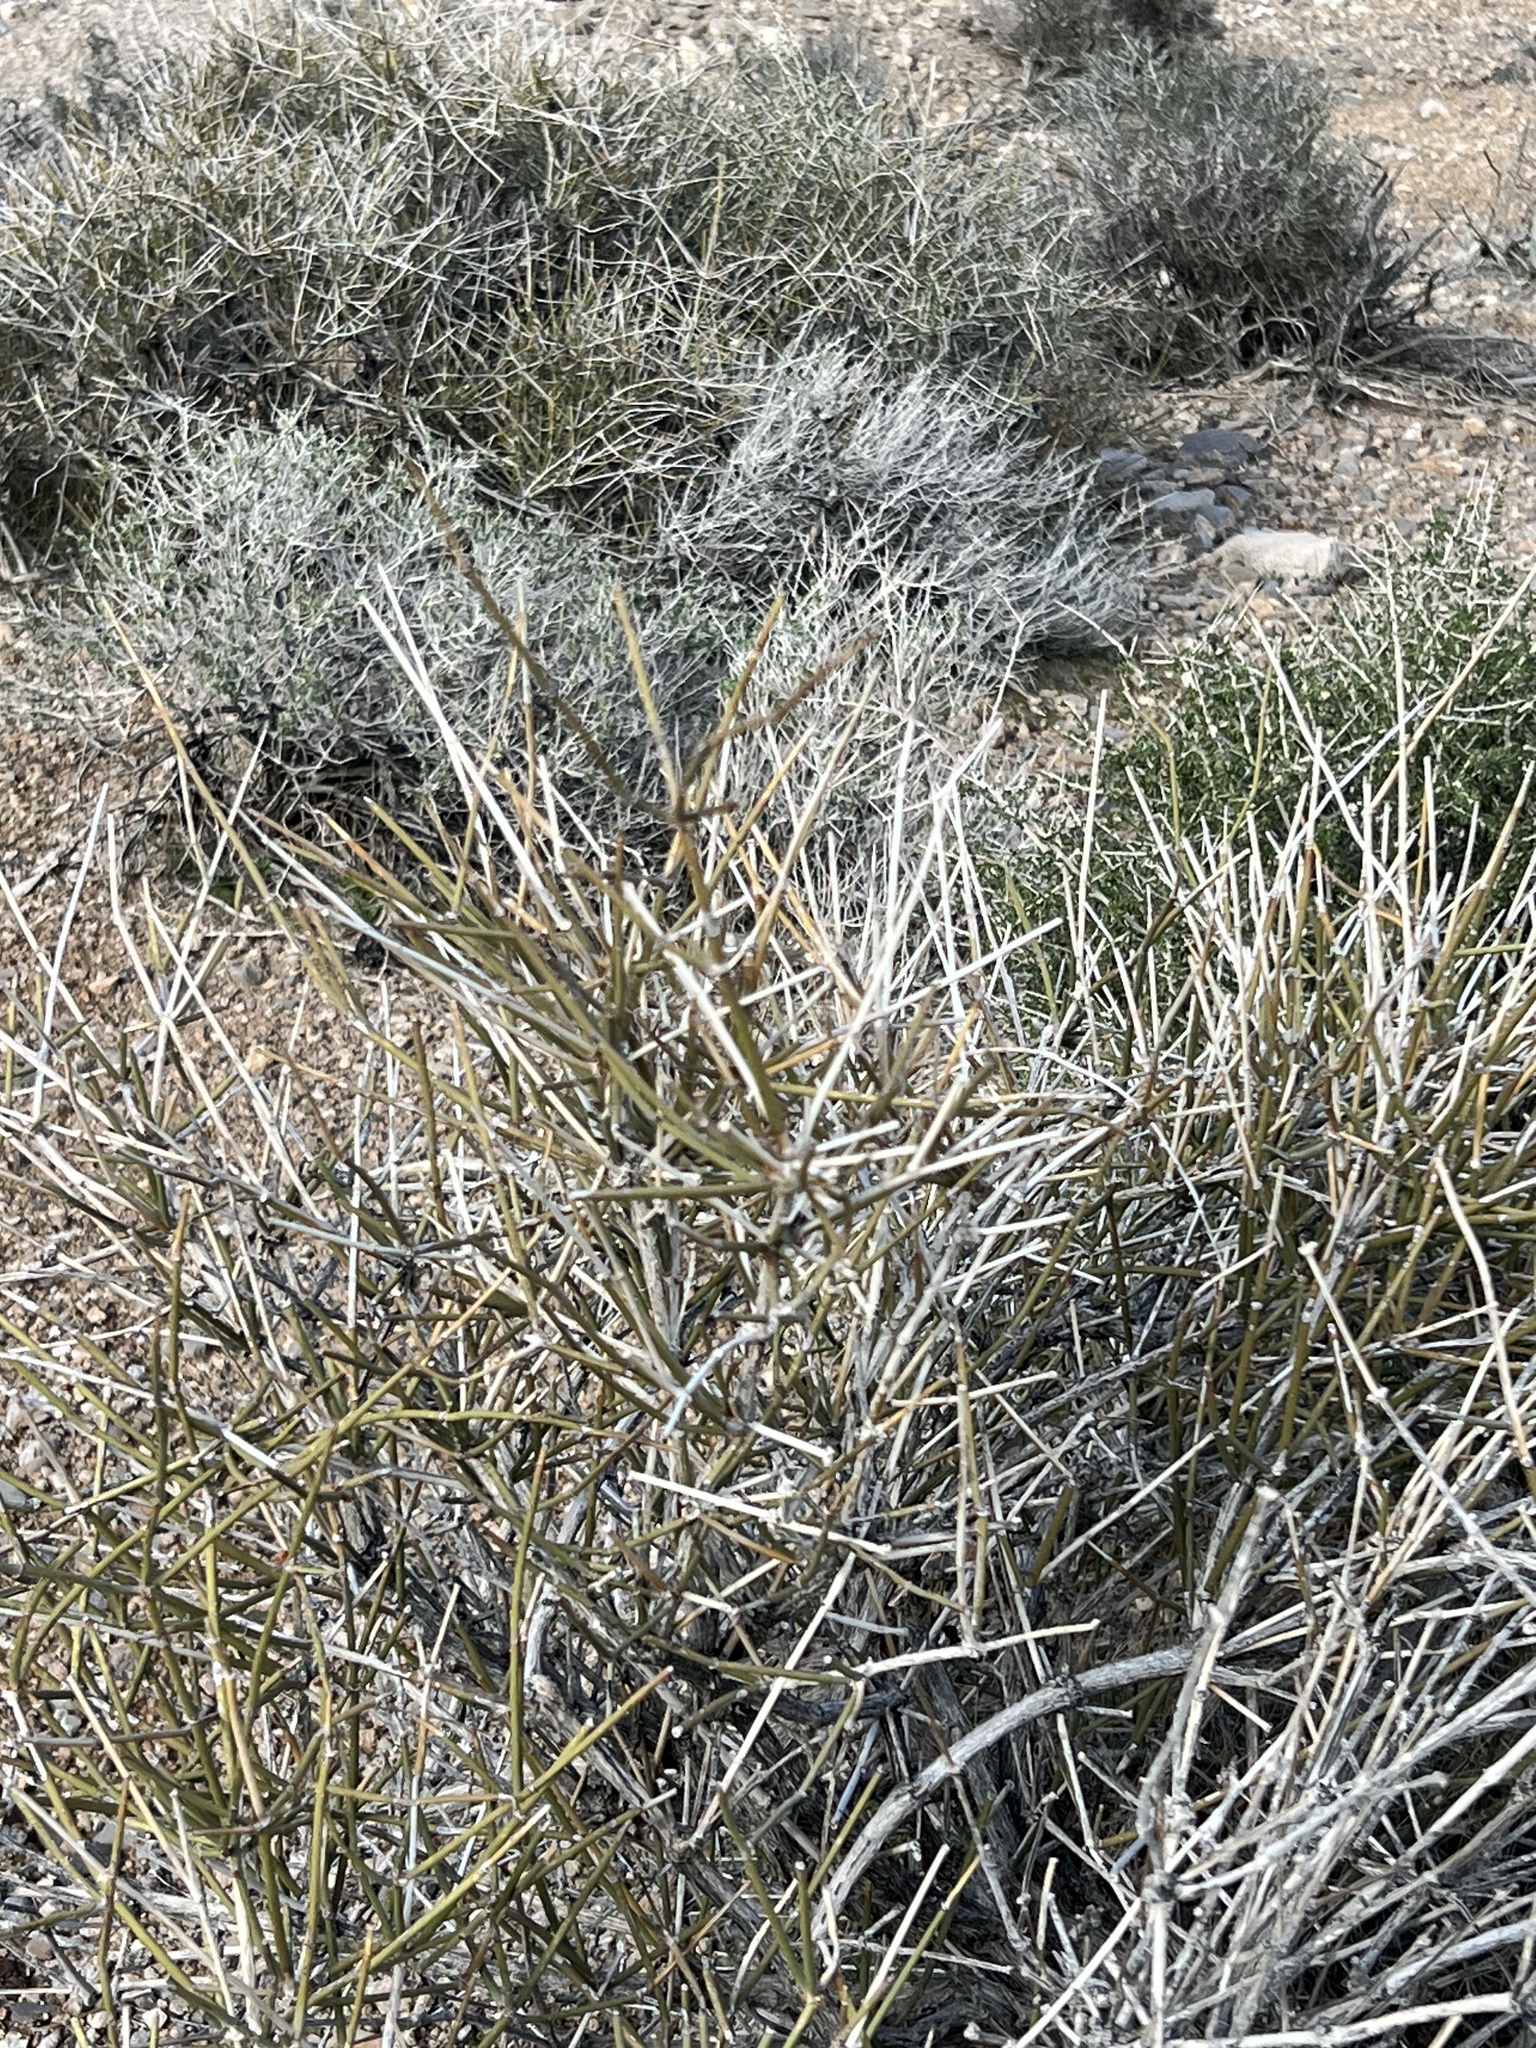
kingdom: Plantae
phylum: Tracheophyta
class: Gnetopsida
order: Ephedrales
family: Ephedraceae
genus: Ephedra
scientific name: Ephedra nevadensis
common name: Gray ephedra
